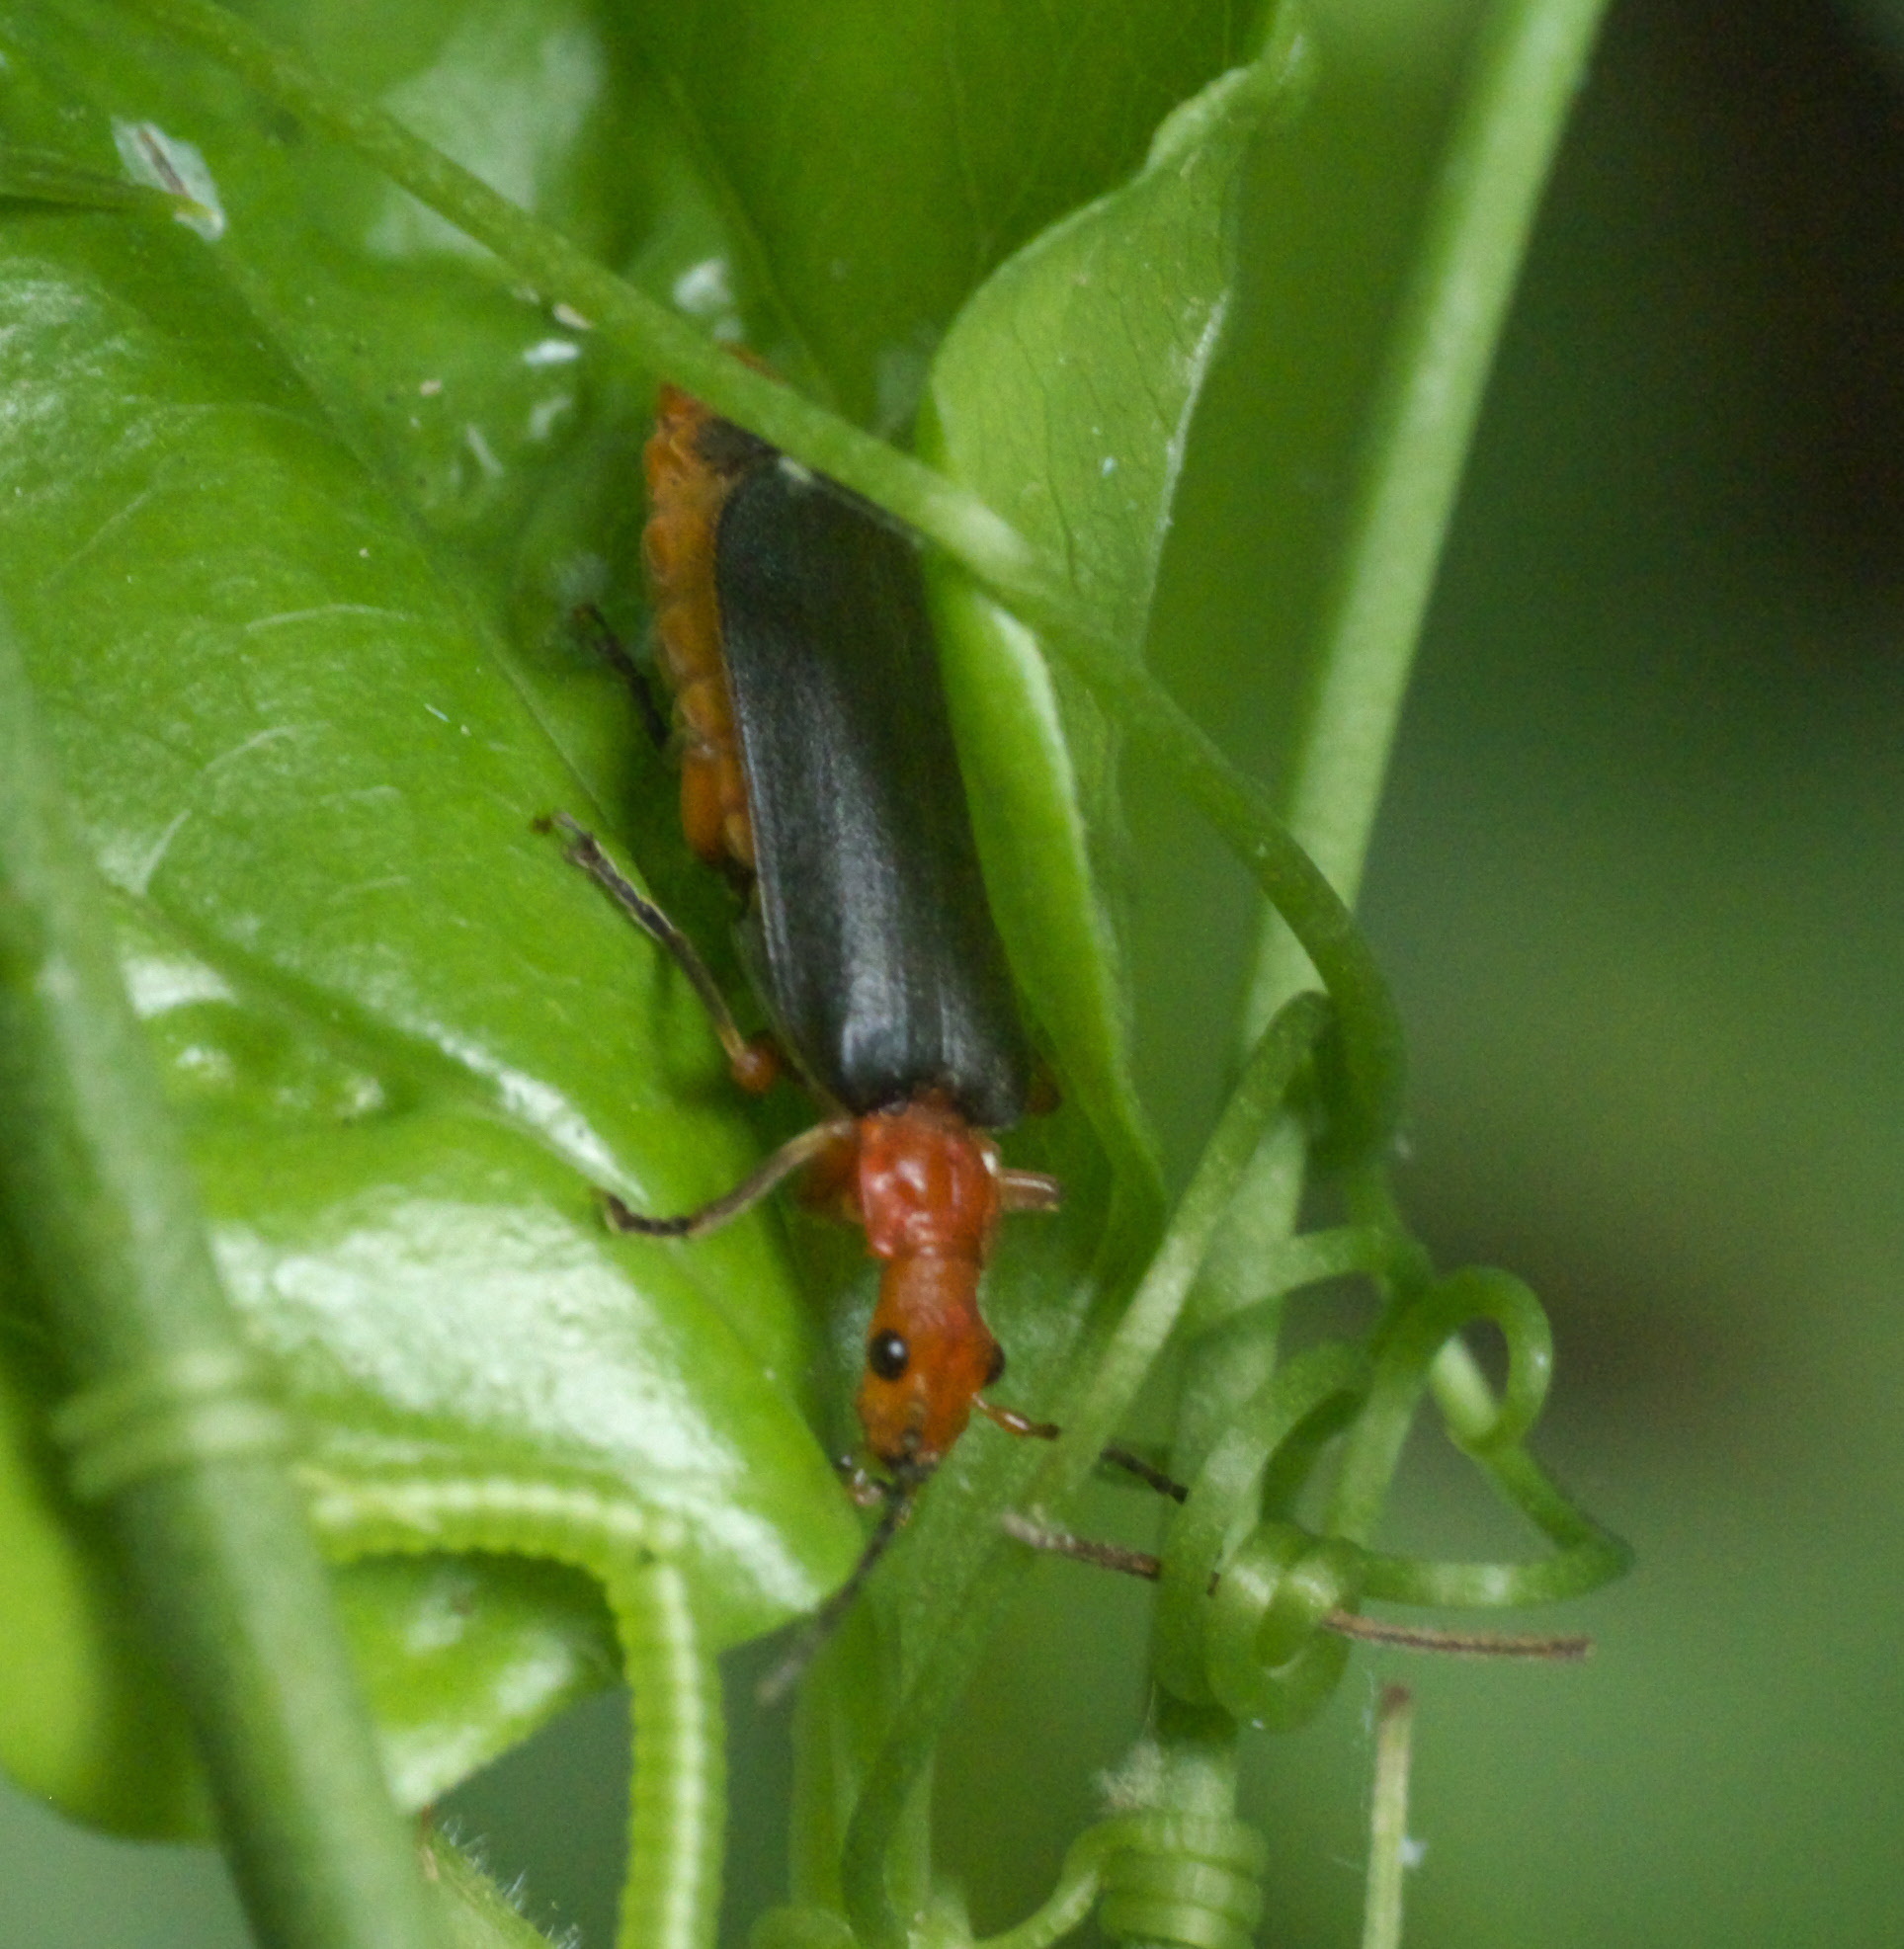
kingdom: Animalia
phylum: Arthropoda
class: Insecta
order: Coleoptera
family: Cantharidae
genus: Podabrus
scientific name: Podabrus tomentosus
